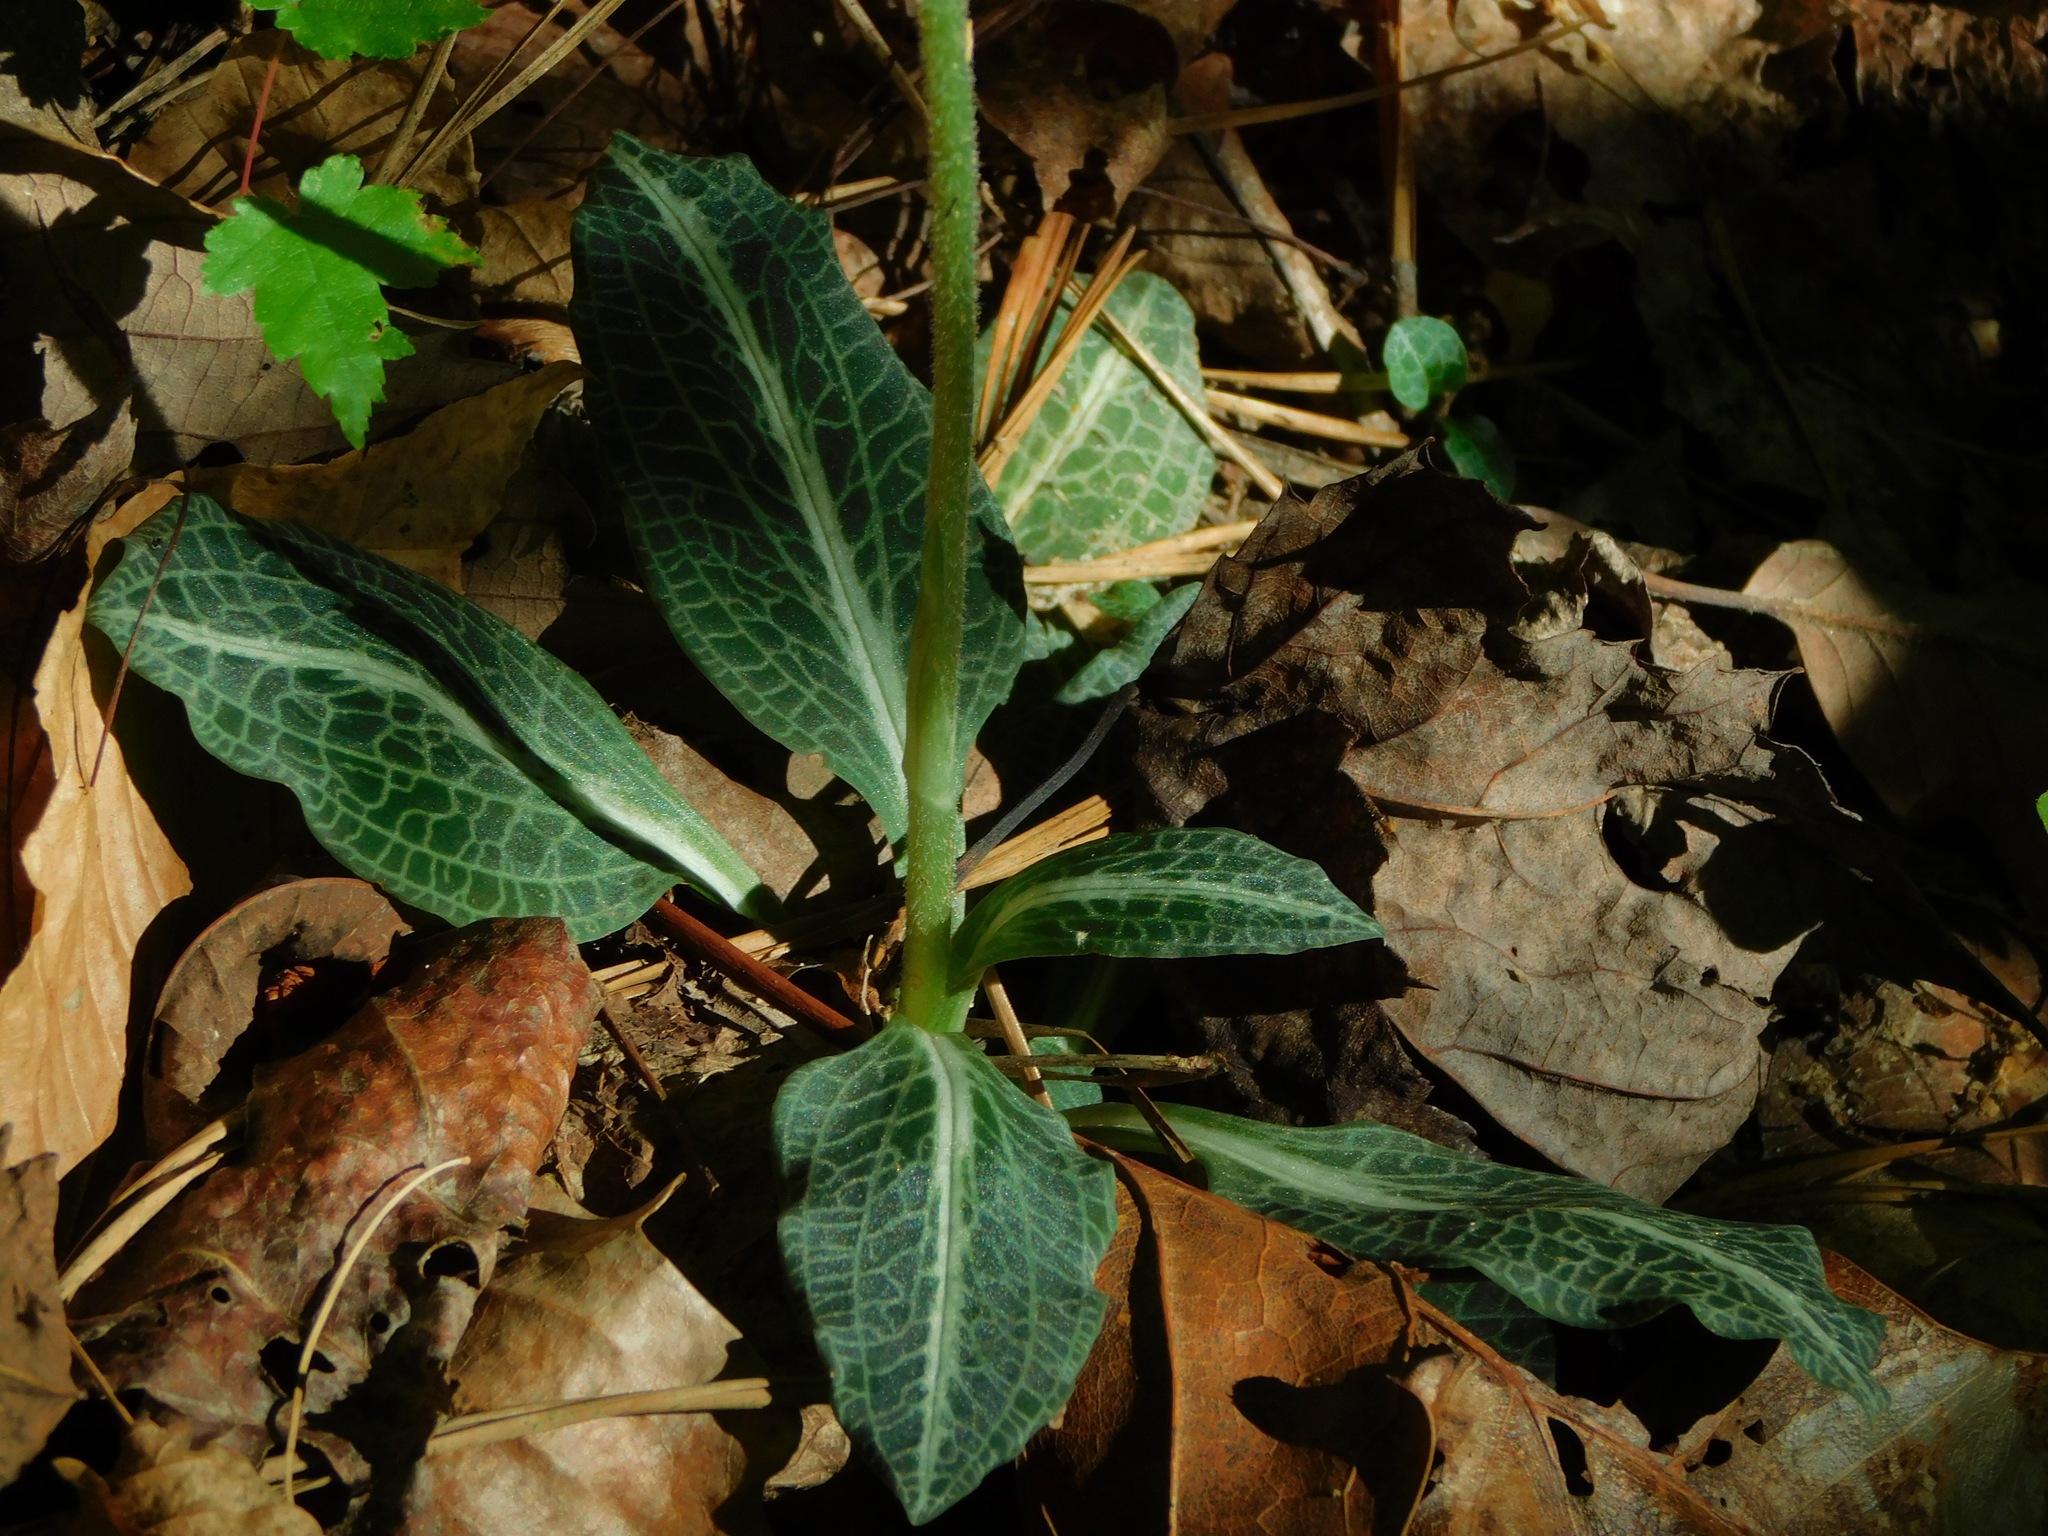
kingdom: Plantae
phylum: Tracheophyta
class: Liliopsida
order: Asparagales
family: Orchidaceae
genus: Goodyera
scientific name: Goodyera pubescens
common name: Downy rattlesnake-plantain
